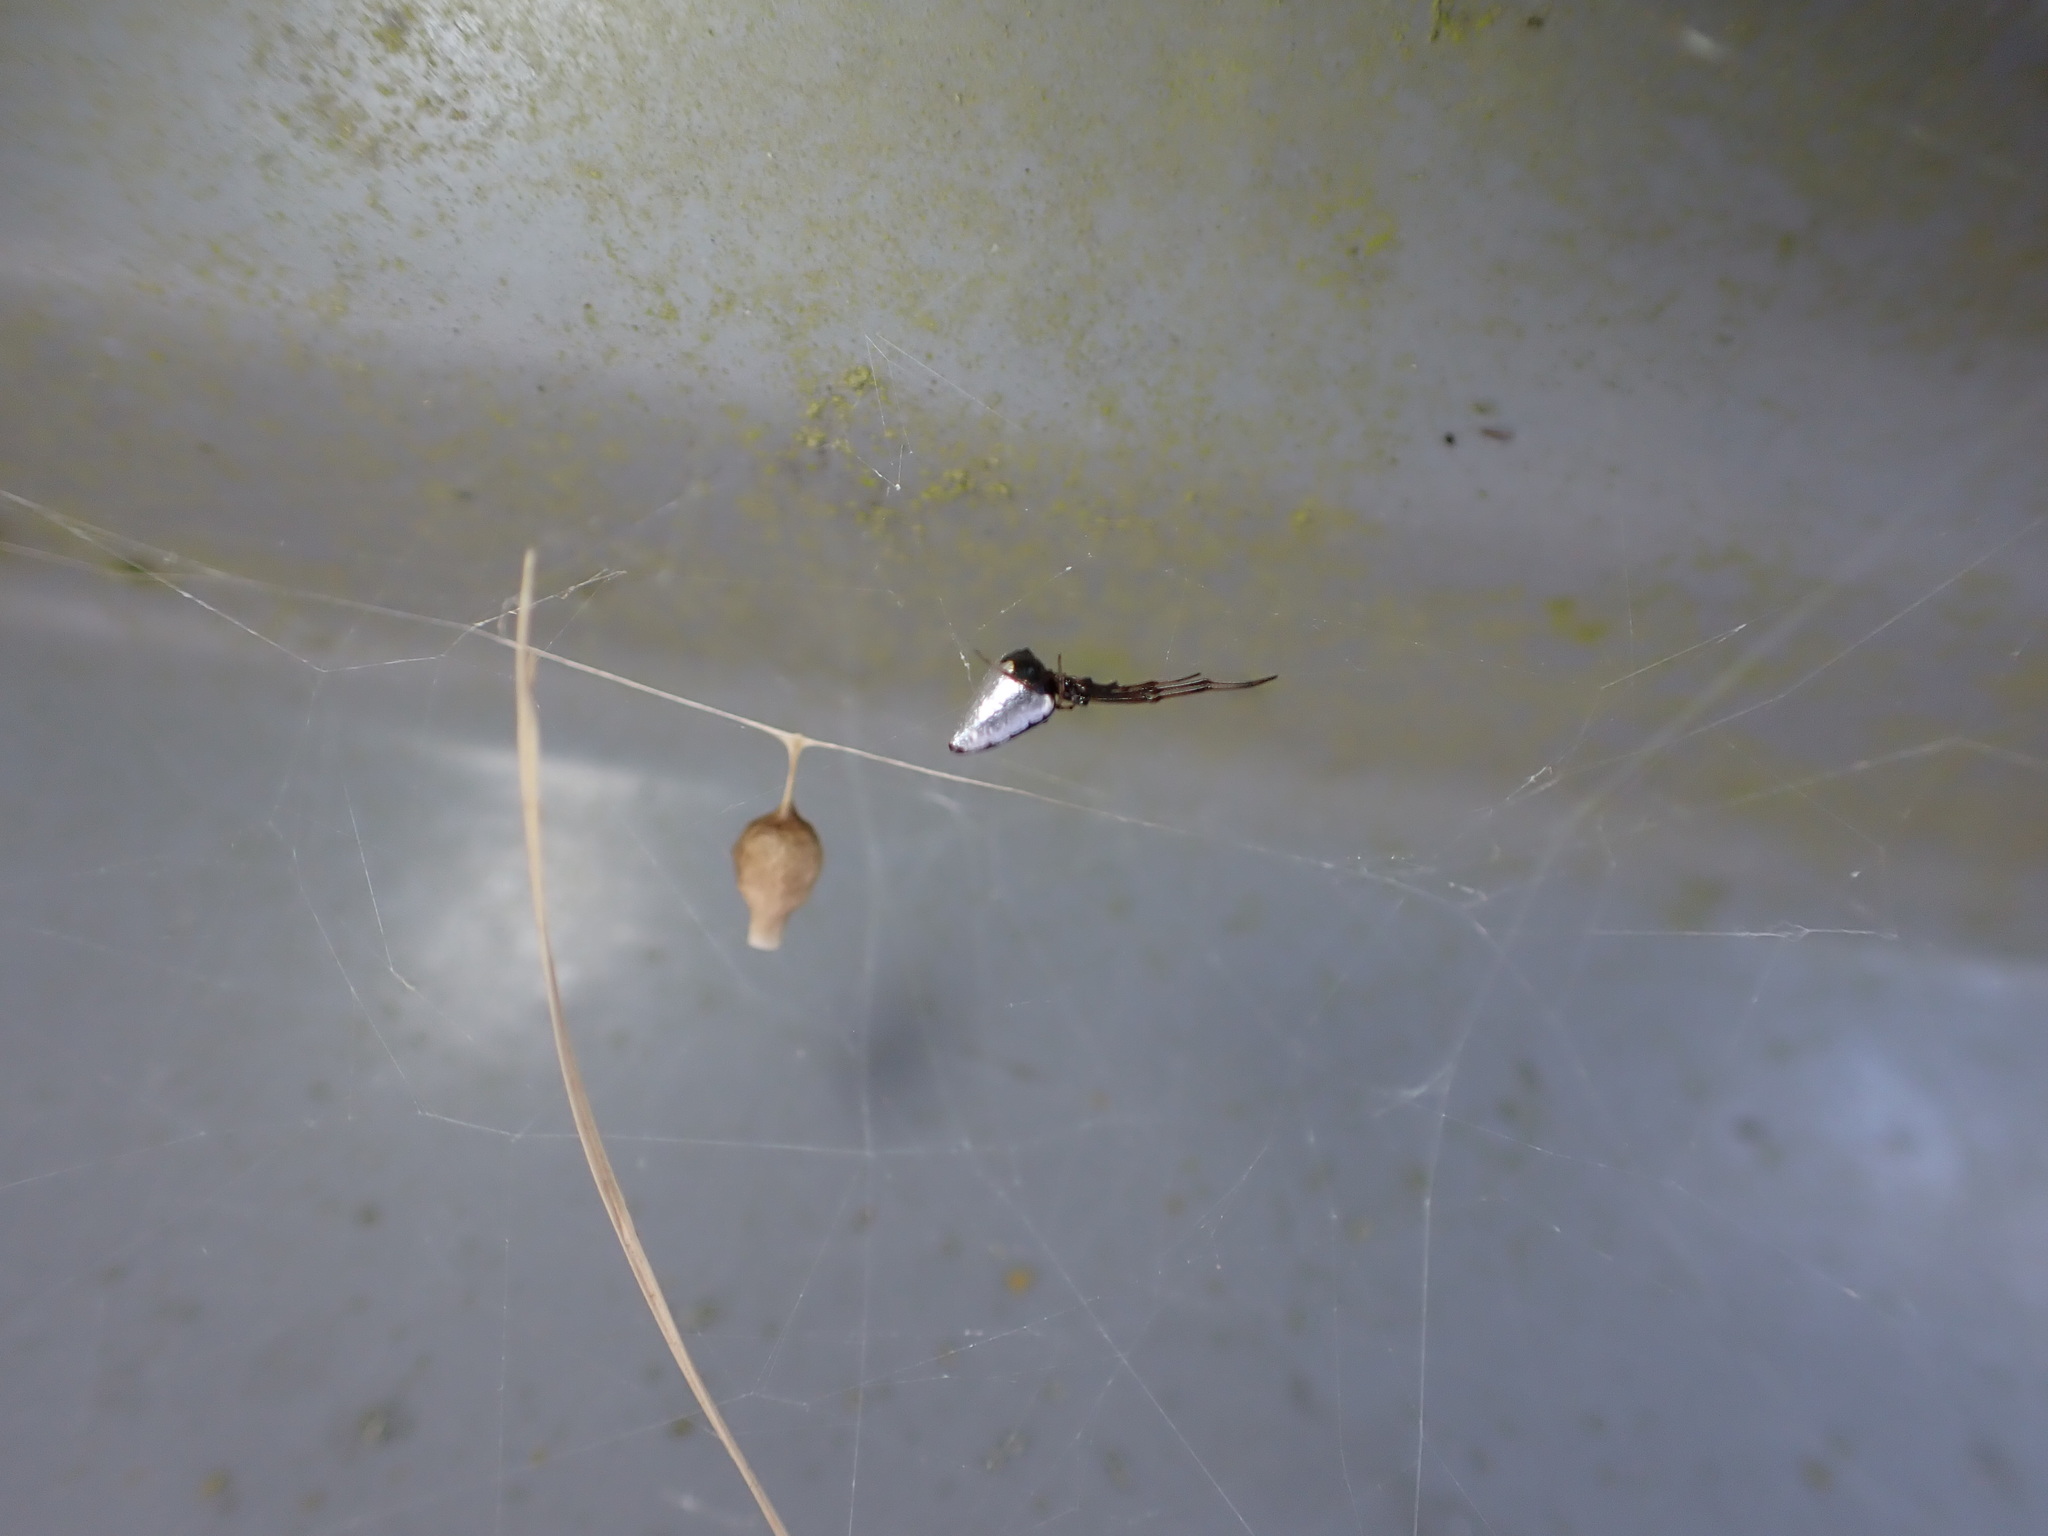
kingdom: Animalia
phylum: Arthropoda
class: Arachnida
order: Araneae
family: Theridiidae
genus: Argyrodes
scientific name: Argyrodes antipodianus
